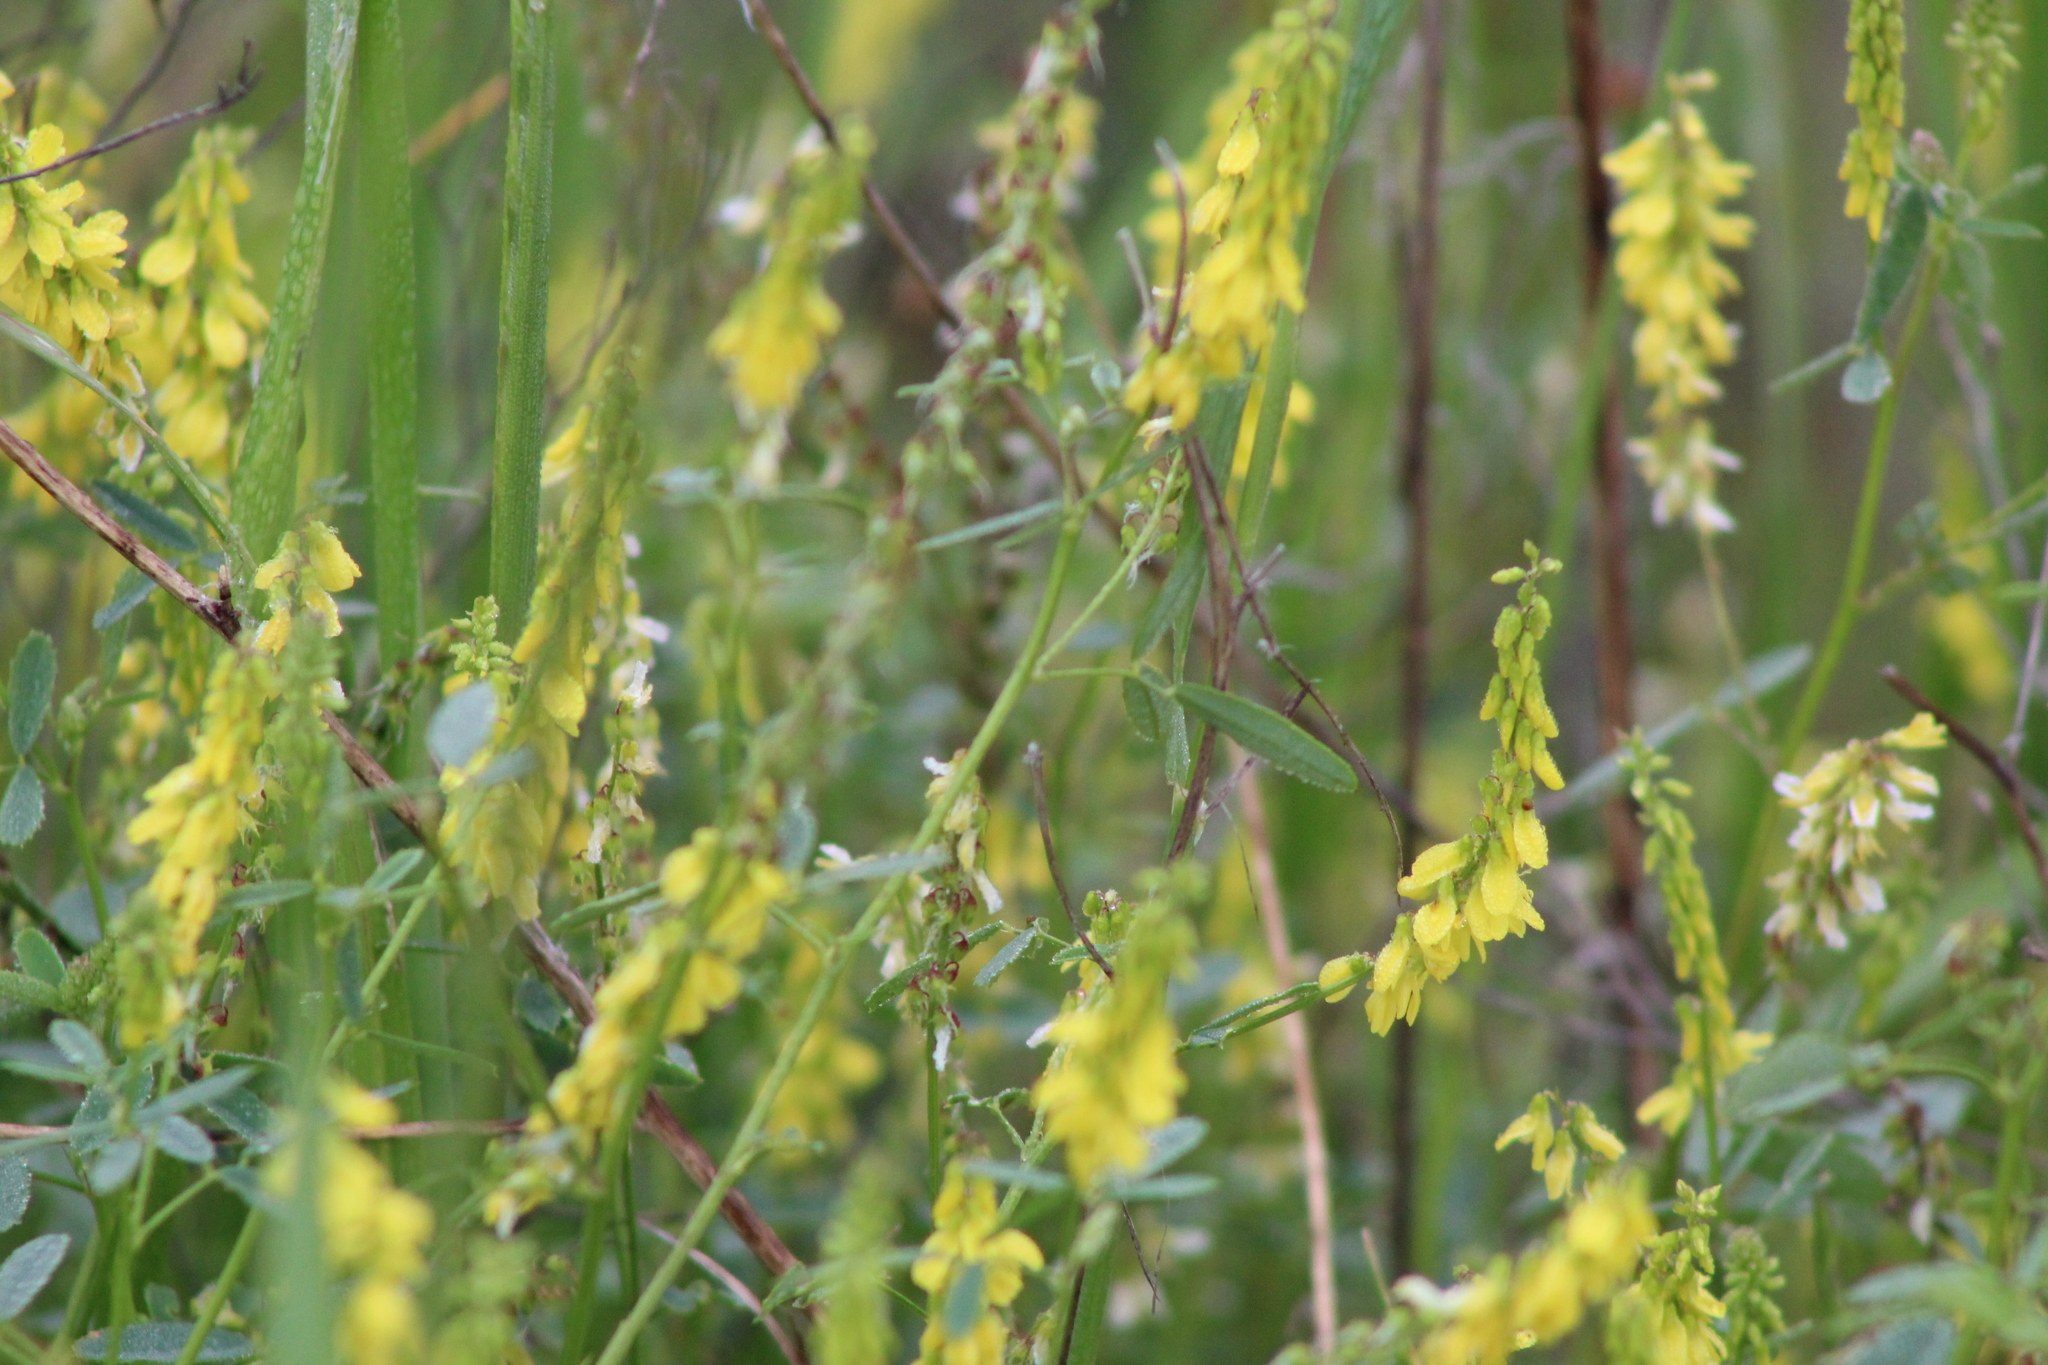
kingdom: Plantae
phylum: Tracheophyta
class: Magnoliopsida
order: Fabales
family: Fabaceae
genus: Melilotus
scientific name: Melilotus officinalis
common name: Sweetclover
